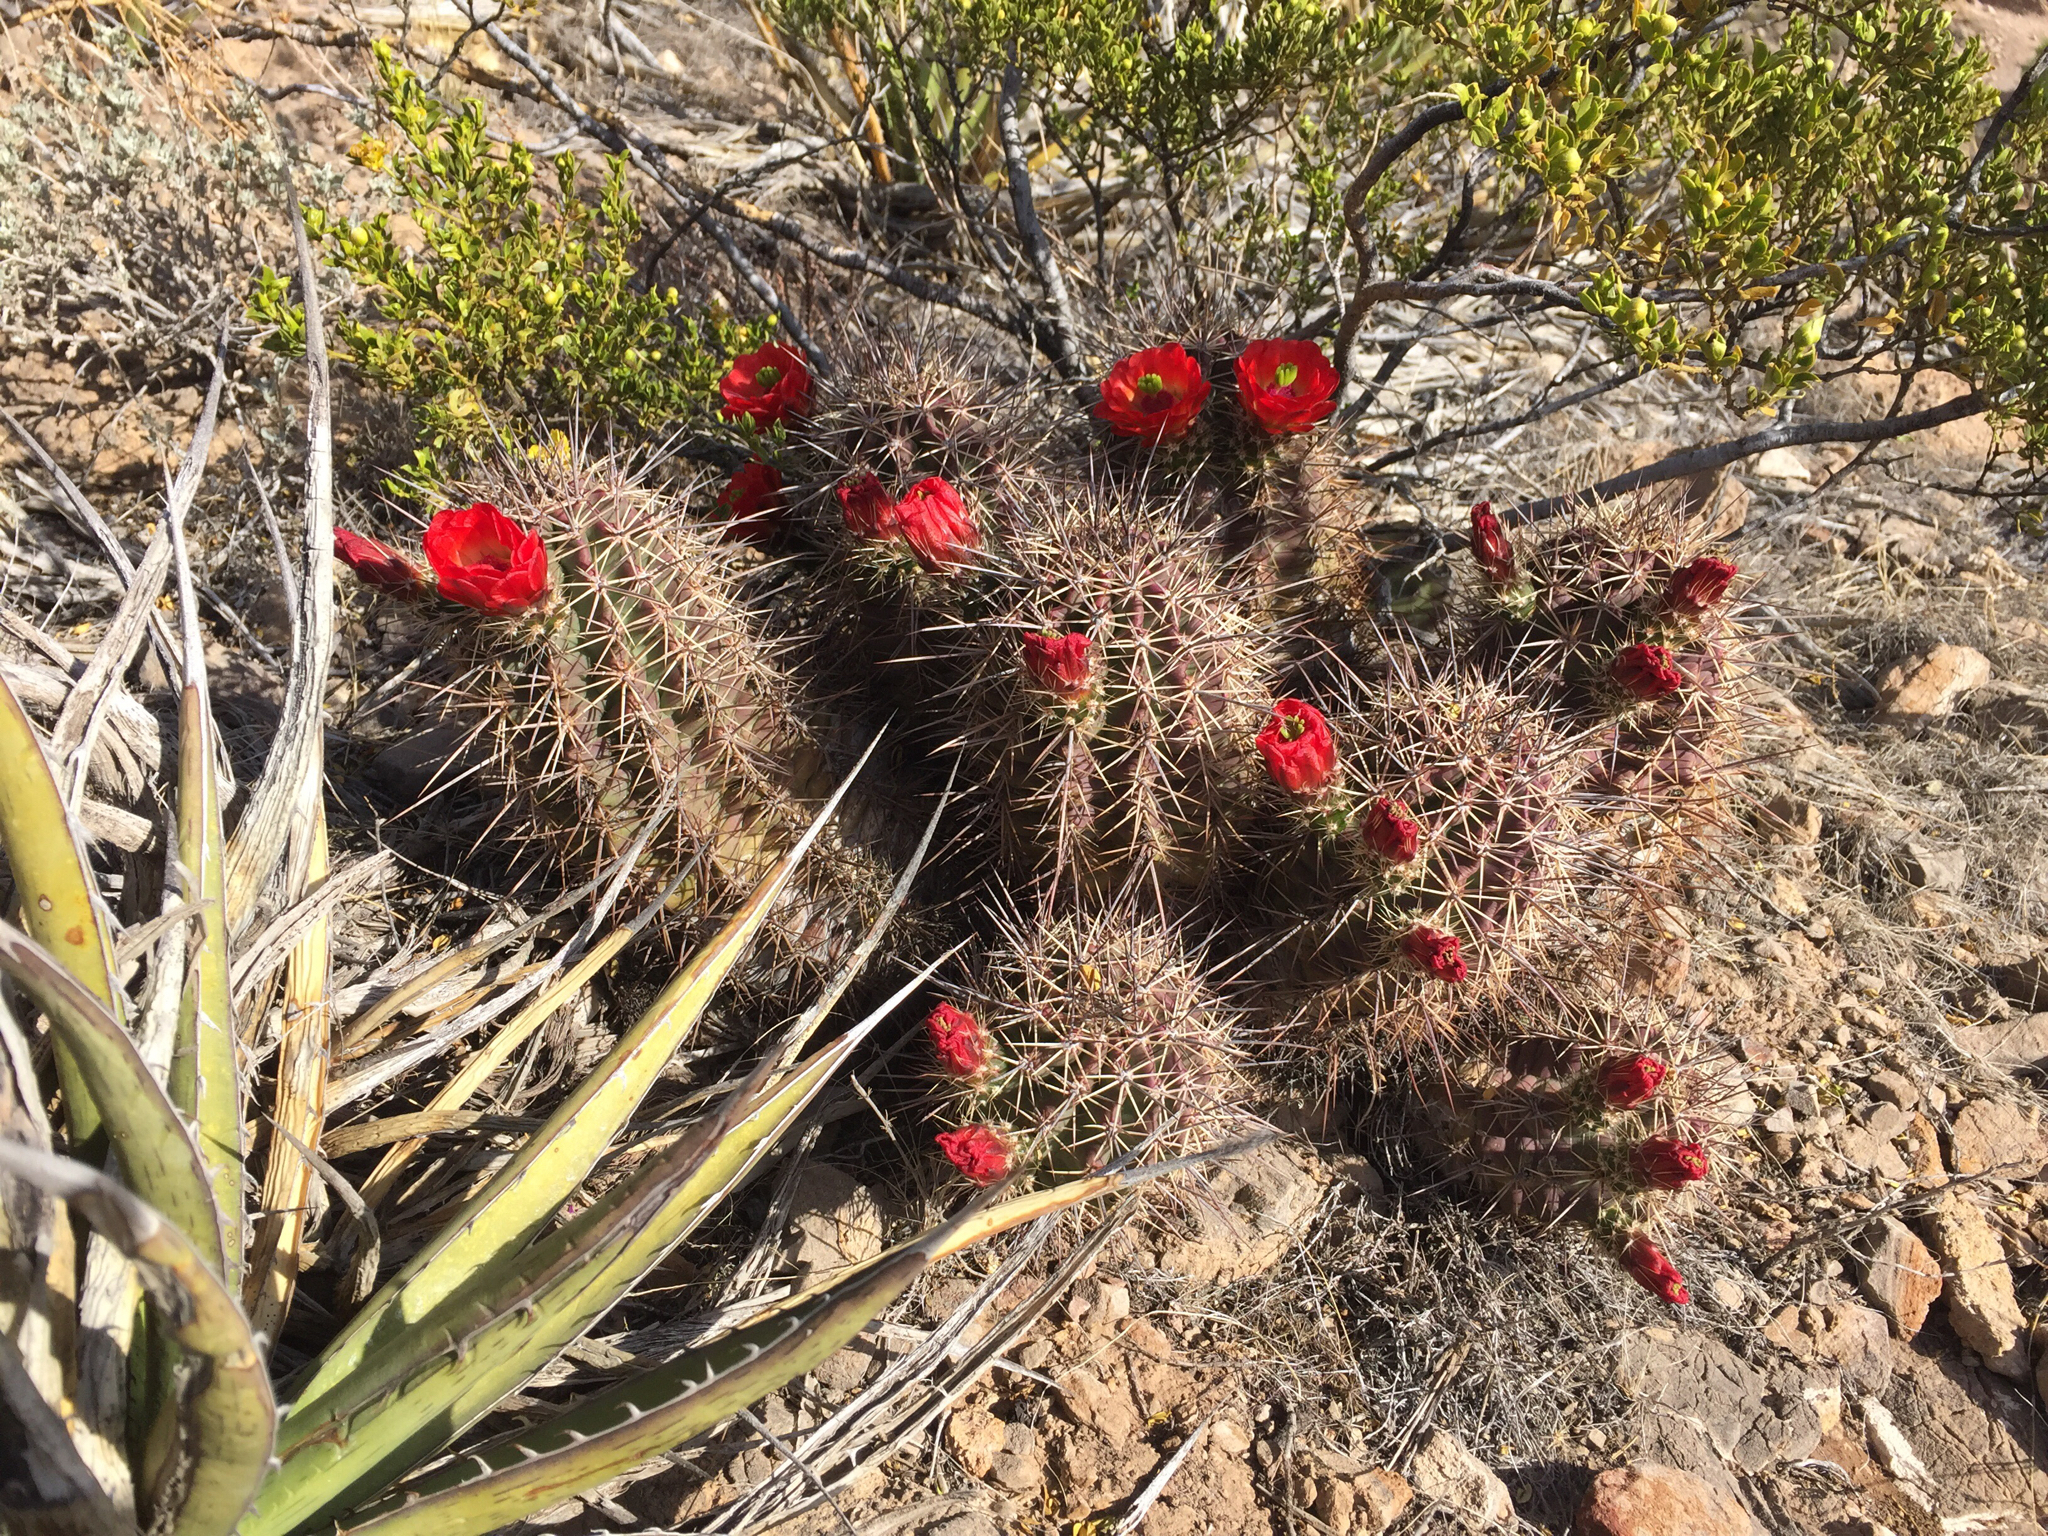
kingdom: Plantae
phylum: Tracheophyta
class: Magnoliopsida
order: Caryophyllales
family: Cactaceae
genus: Echinocereus
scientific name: Echinocereus coccineus
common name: Scarlet hedgehog cactus
